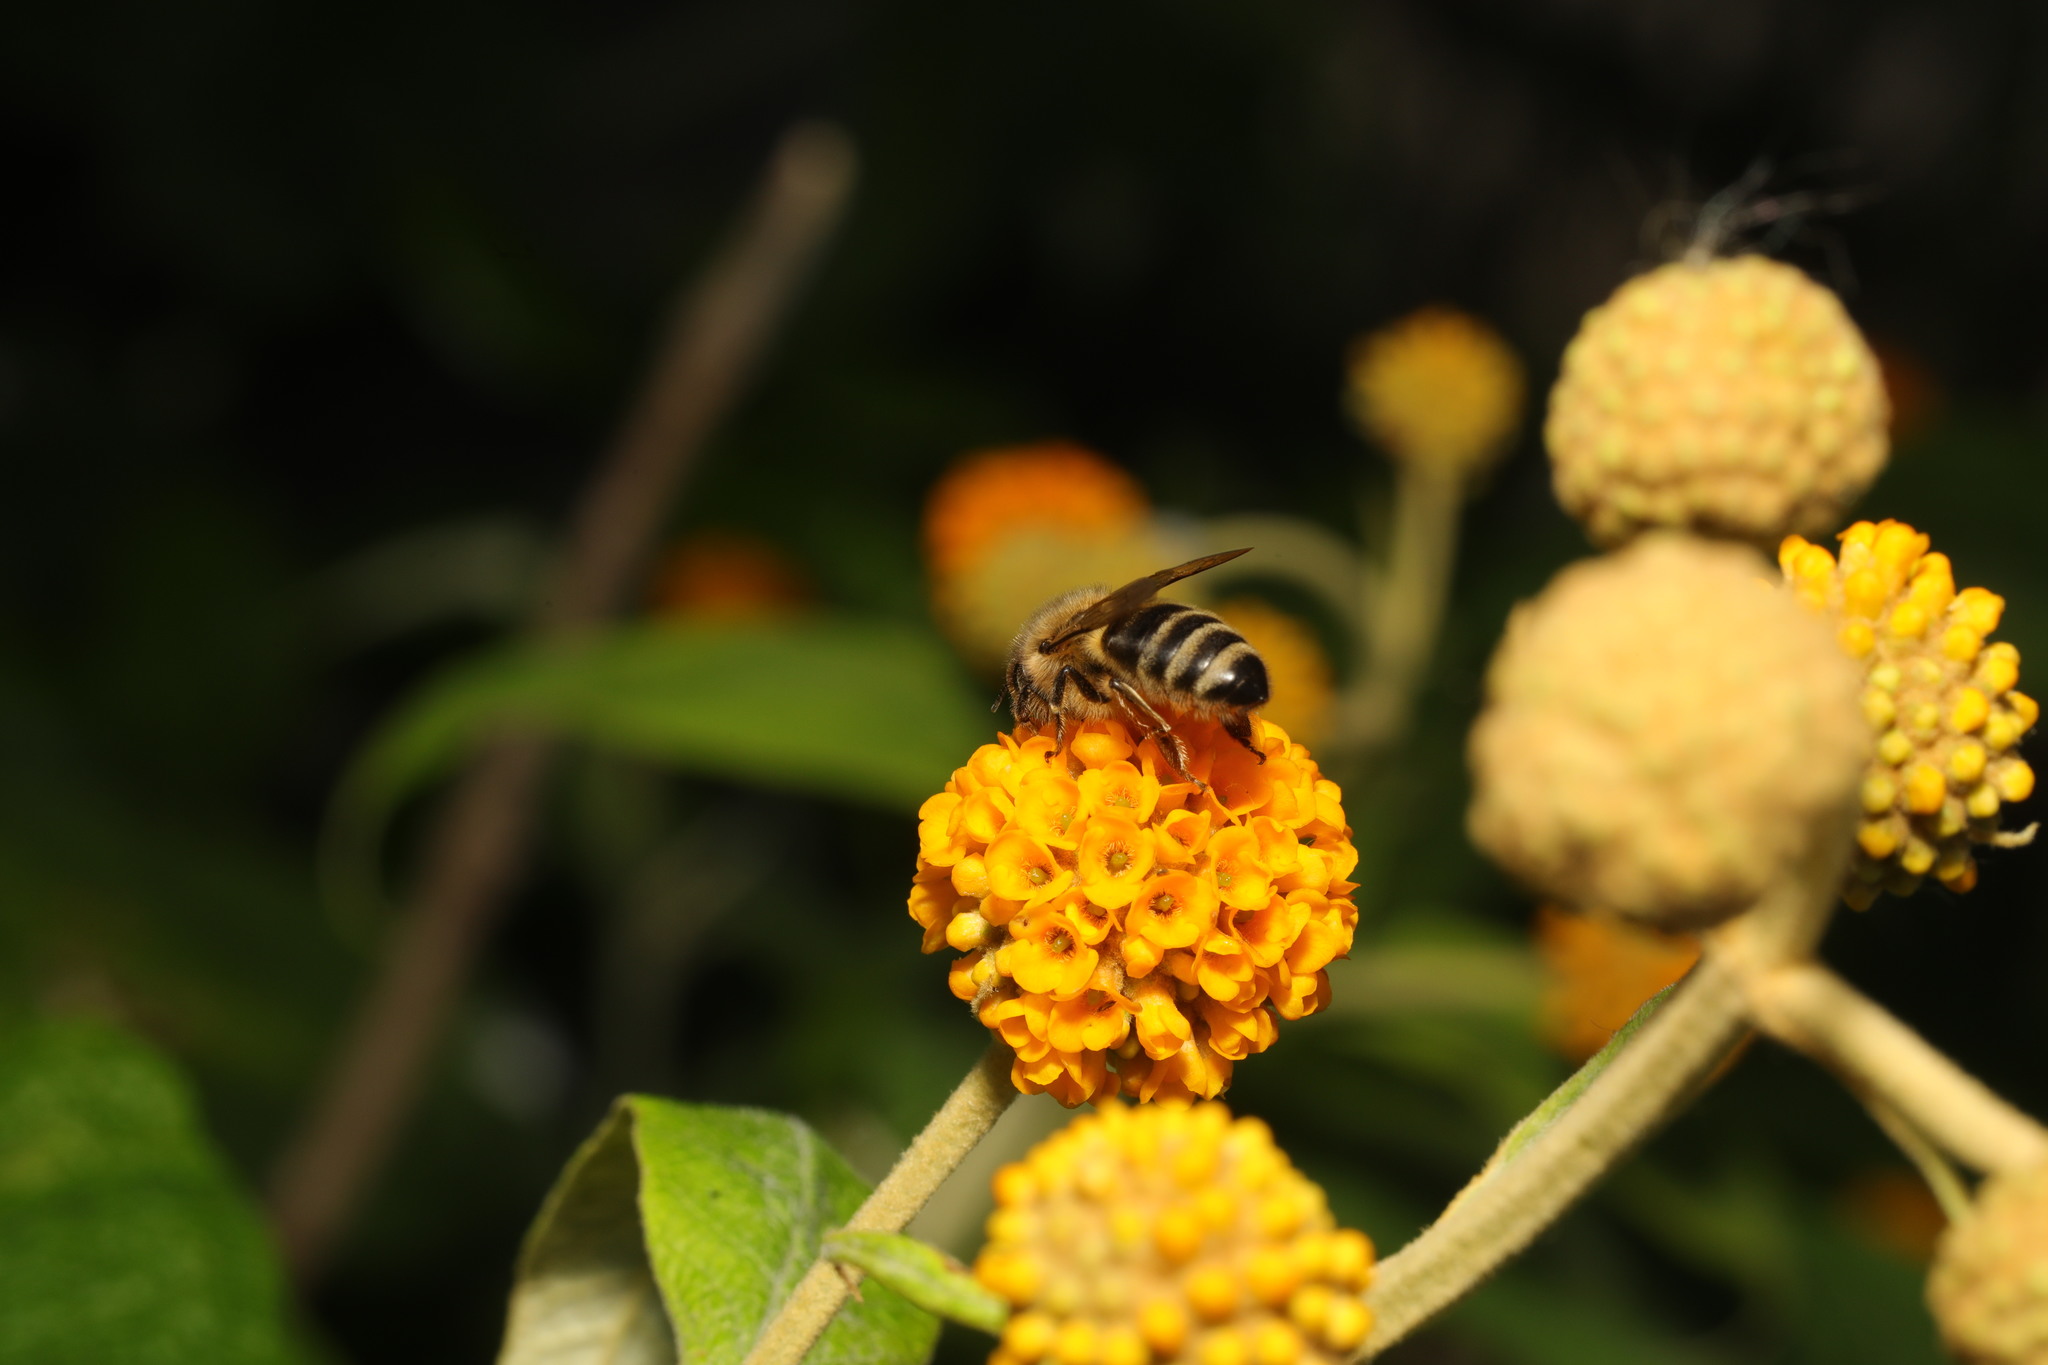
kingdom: Animalia
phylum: Arthropoda
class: Insecta
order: Hymenoptera
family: Apidae
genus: Apis
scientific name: Apis mellifera
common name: Honey bee
